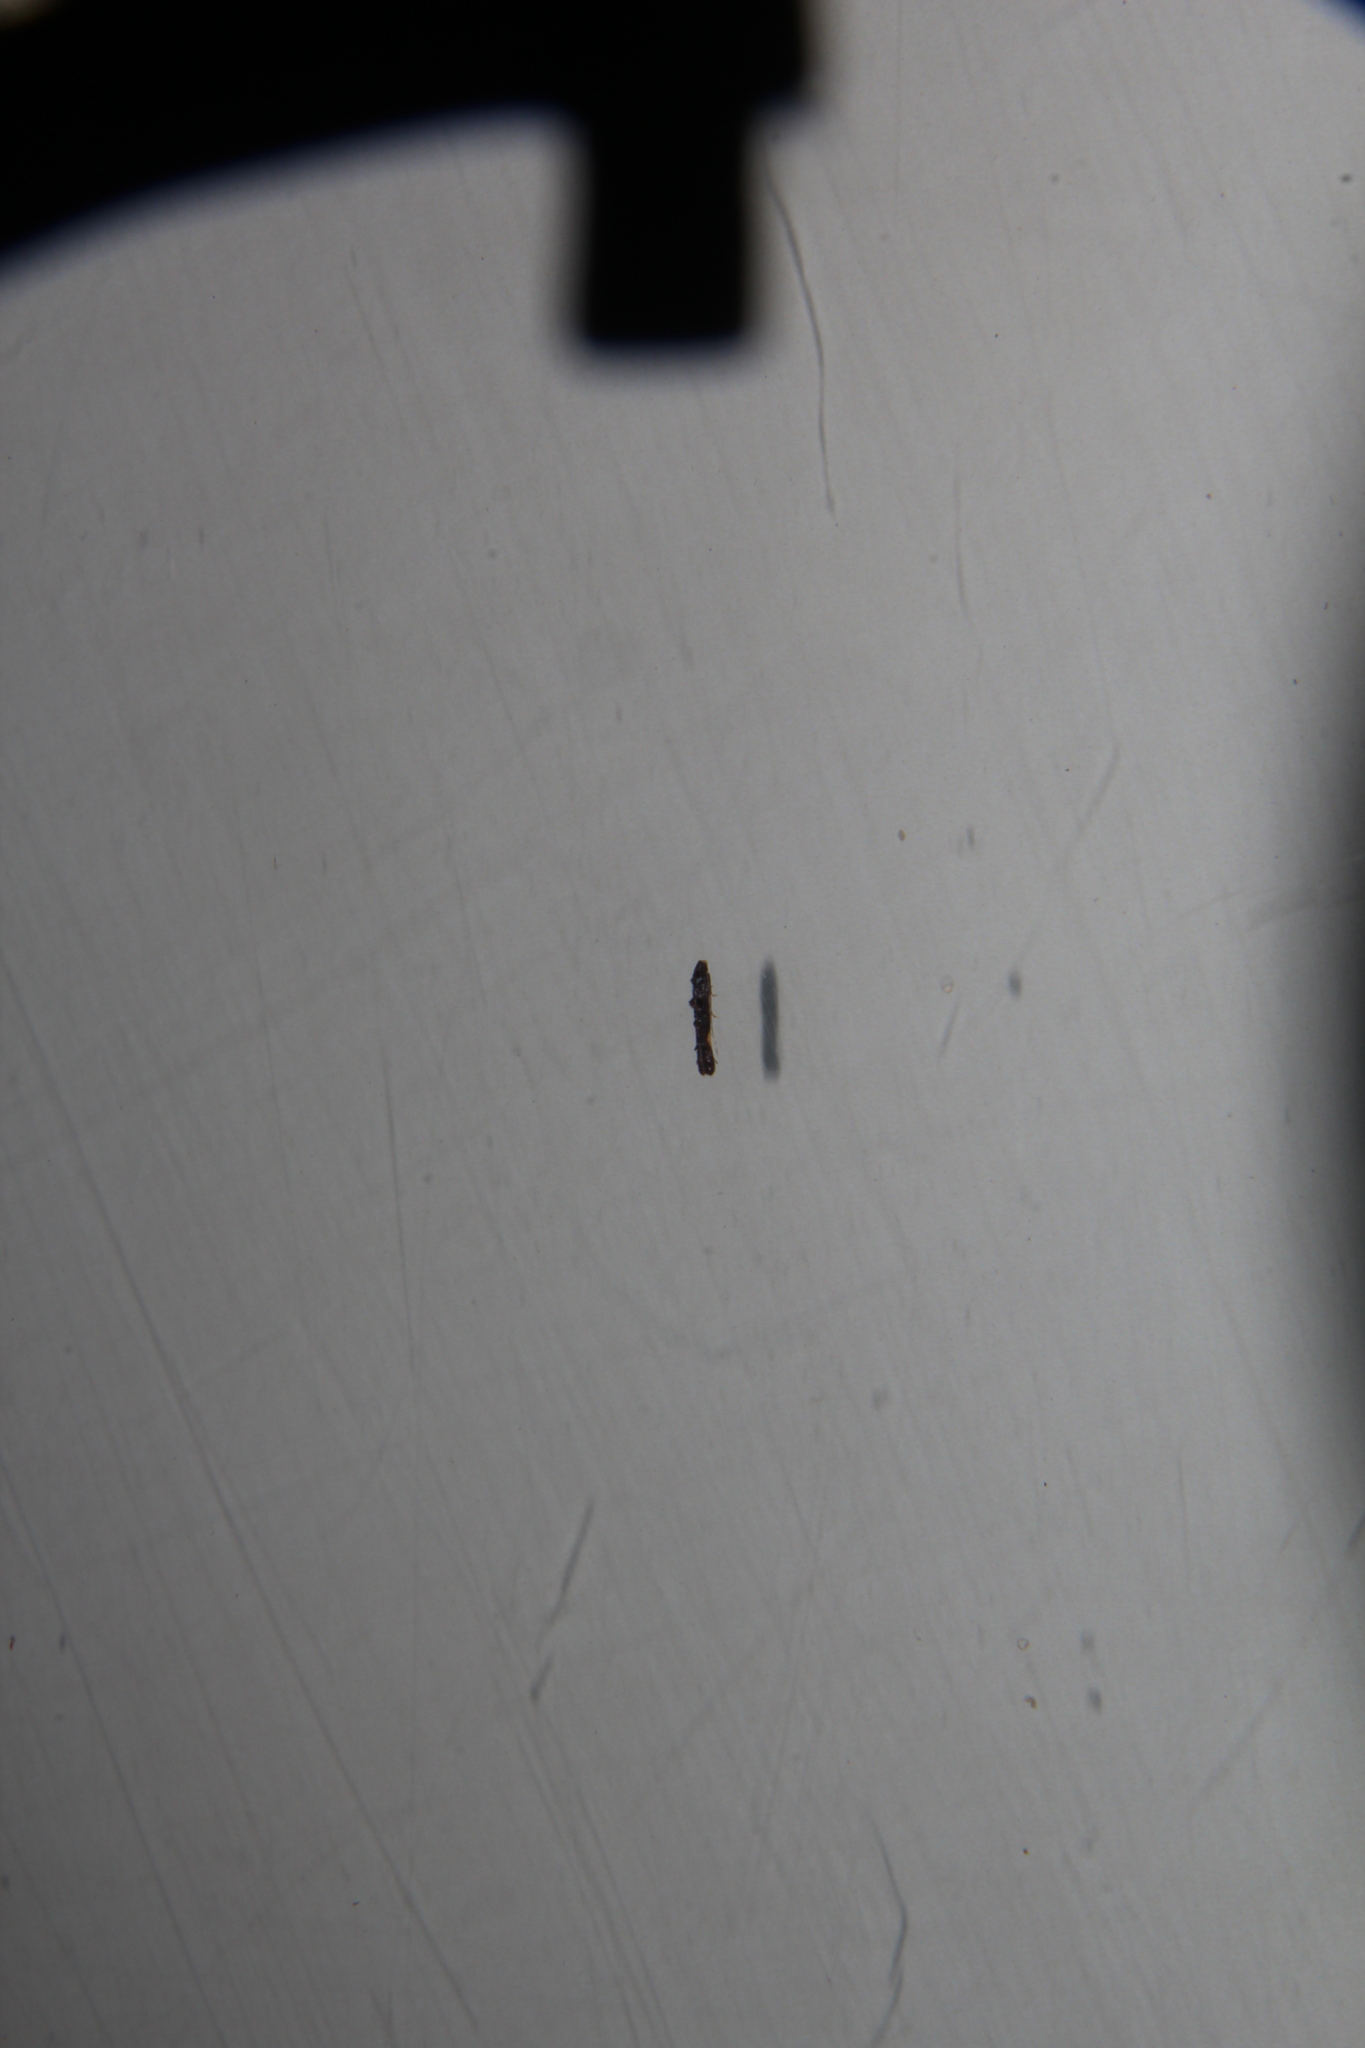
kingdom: Animalia
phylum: Arthropoda
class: Insecta
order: Lepidoptera
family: Elachistidae
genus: Microcolona
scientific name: Microcolona
